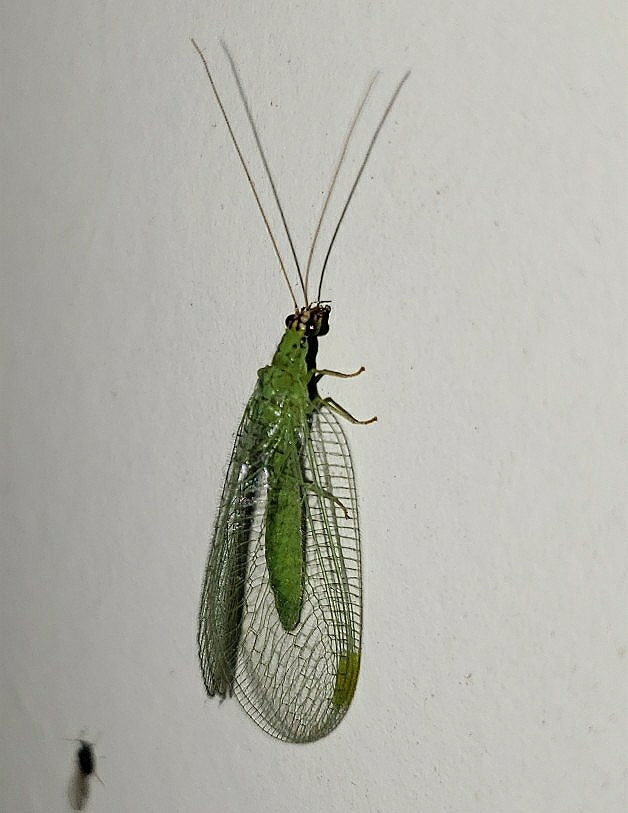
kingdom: Animalia
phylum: Arthropoda
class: Insecta
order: Neuroptera
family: Chrysopidae
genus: Chrysopa
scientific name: Chrysopa oculata
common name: Golden-eyed lacewing
